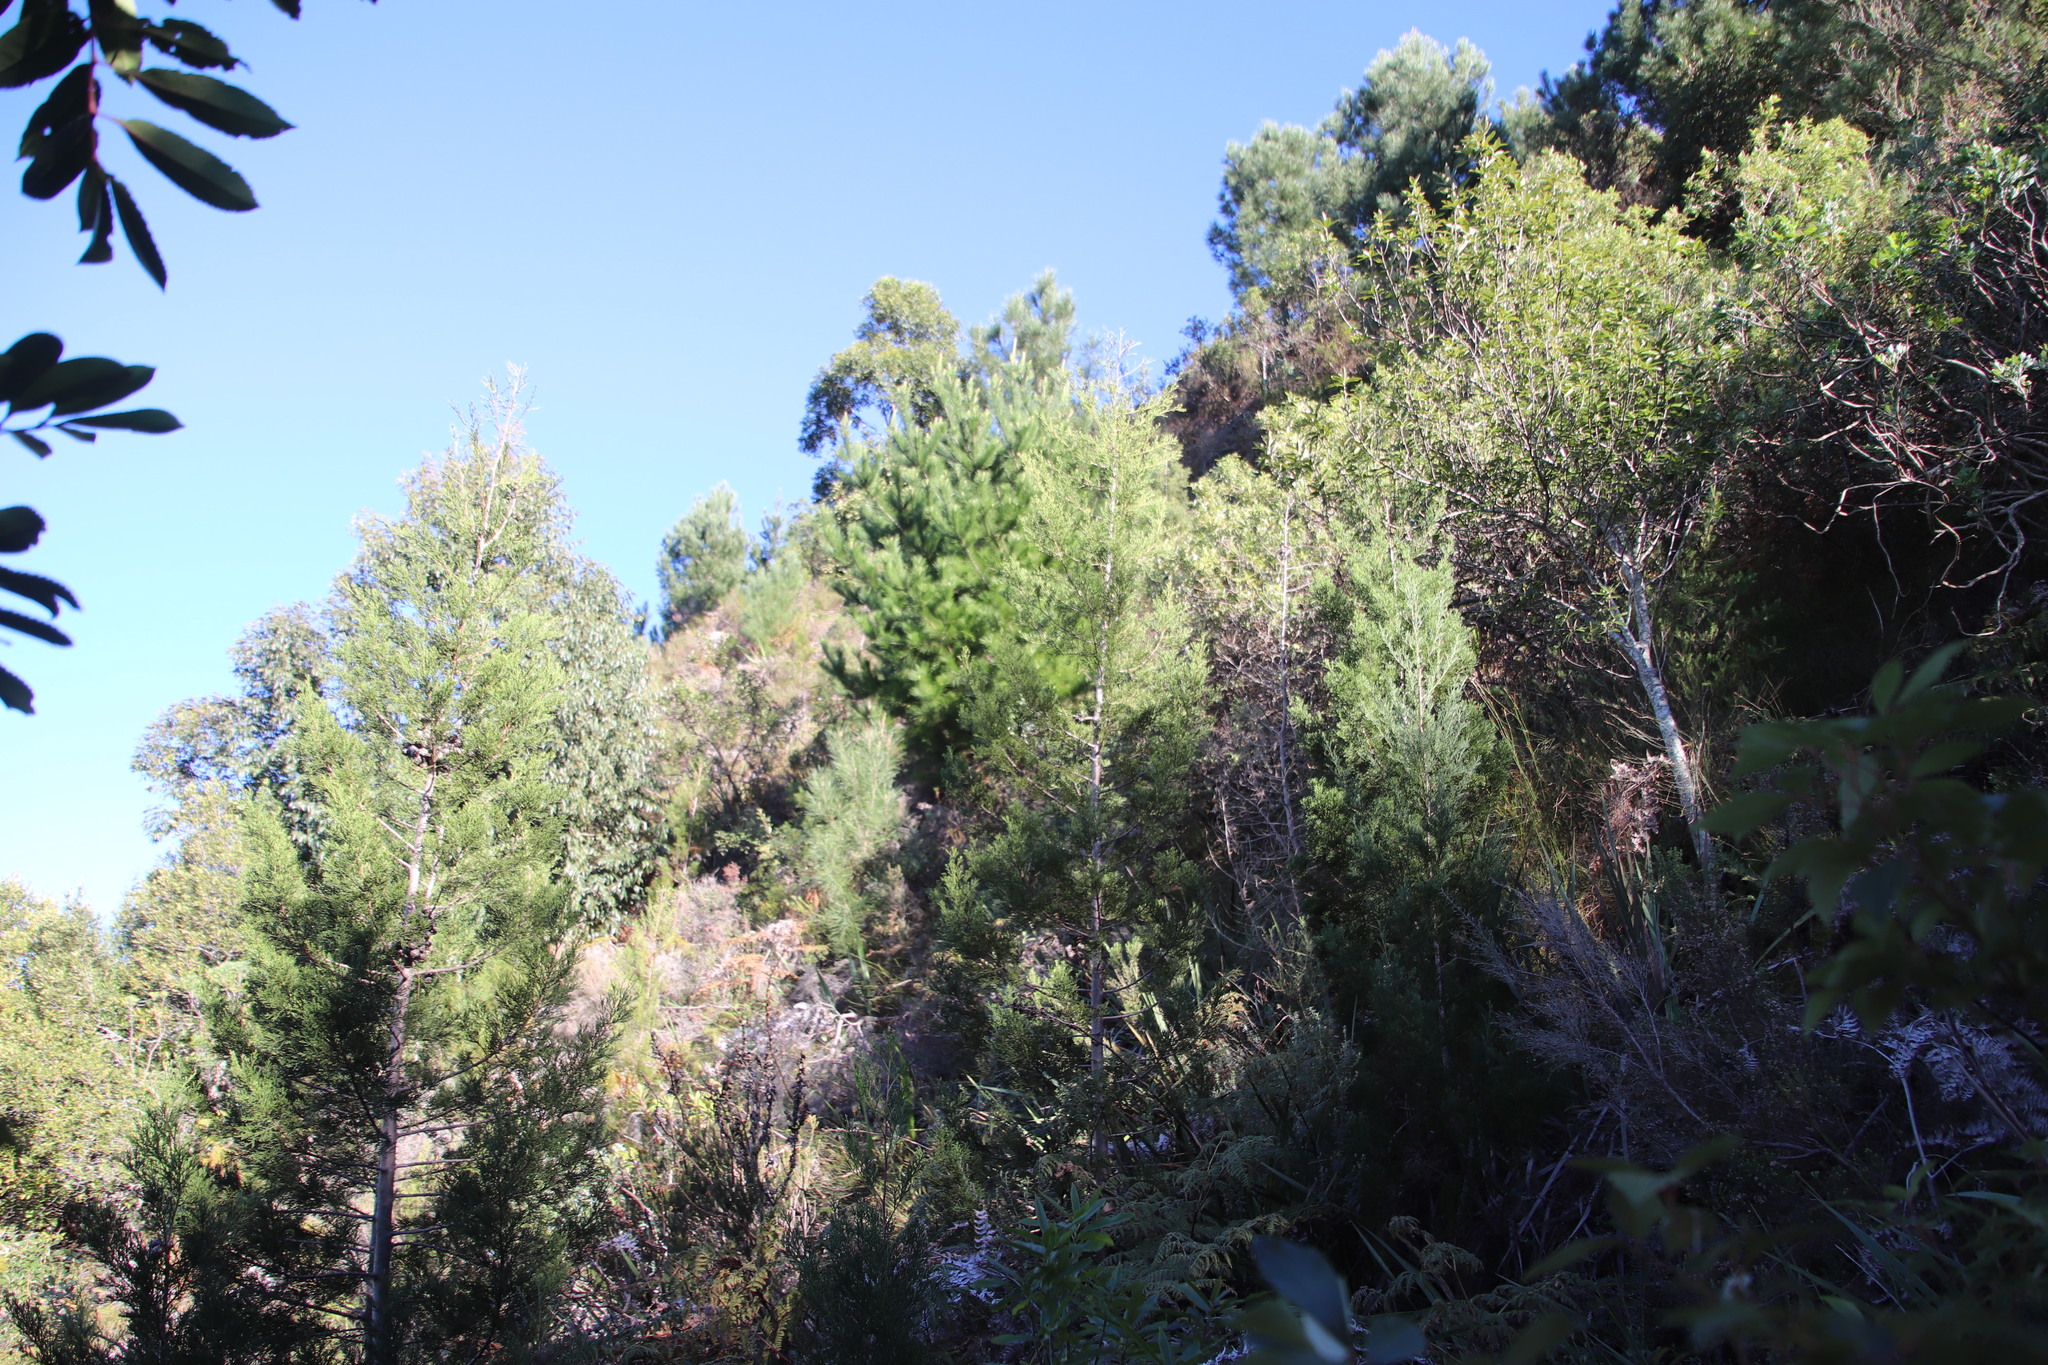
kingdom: Plantae
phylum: Tracheophyta
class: Pinopsida
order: Pinales
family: Pinaceae
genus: Pinus
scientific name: Pinus radiata
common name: Monterey pine
